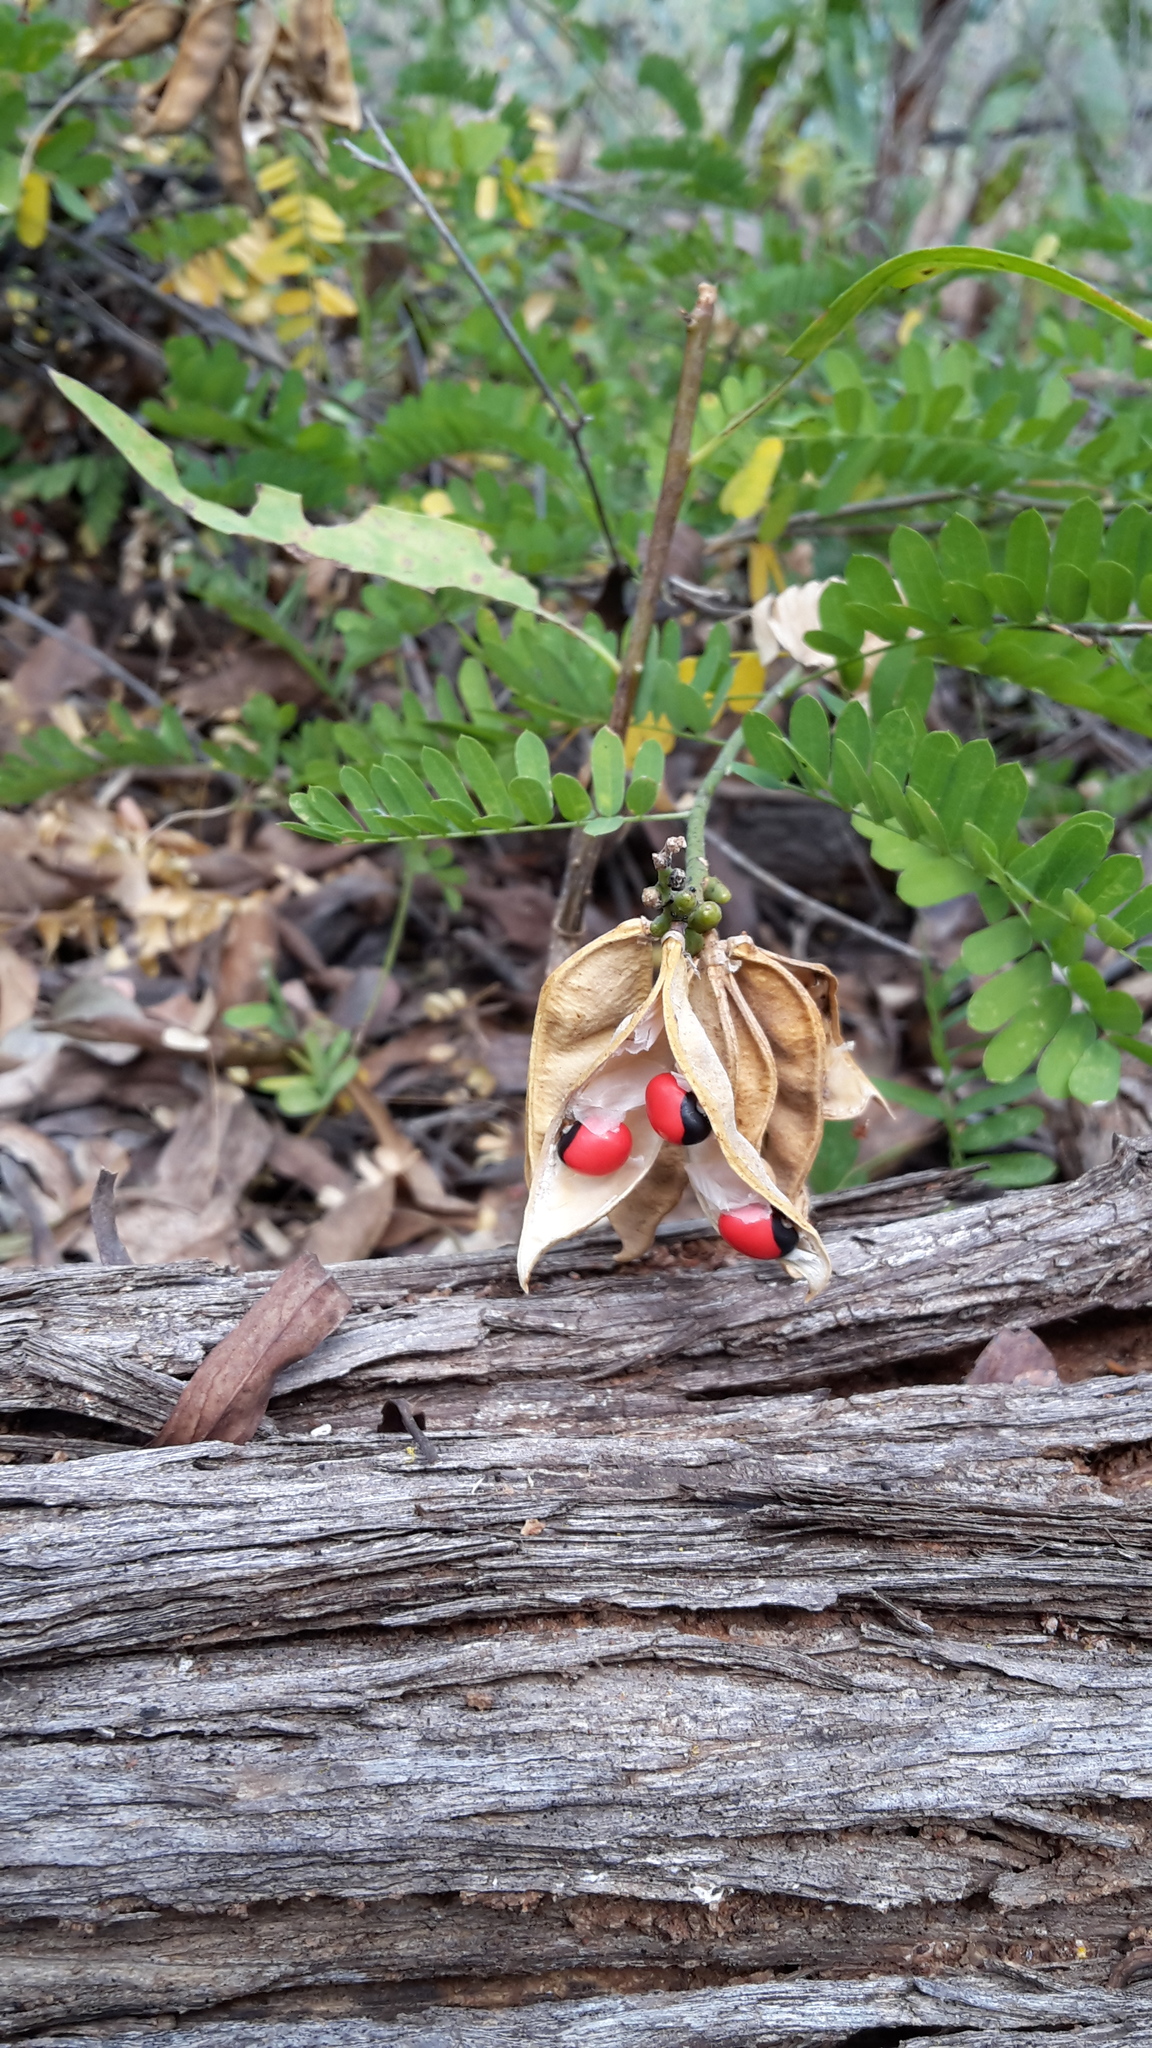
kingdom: Plantae
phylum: Tracheophyta
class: Magnoliopsida
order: Fabales
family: Fabaceae
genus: Abrus
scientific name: Abrus precatorius
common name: Rosarypea
